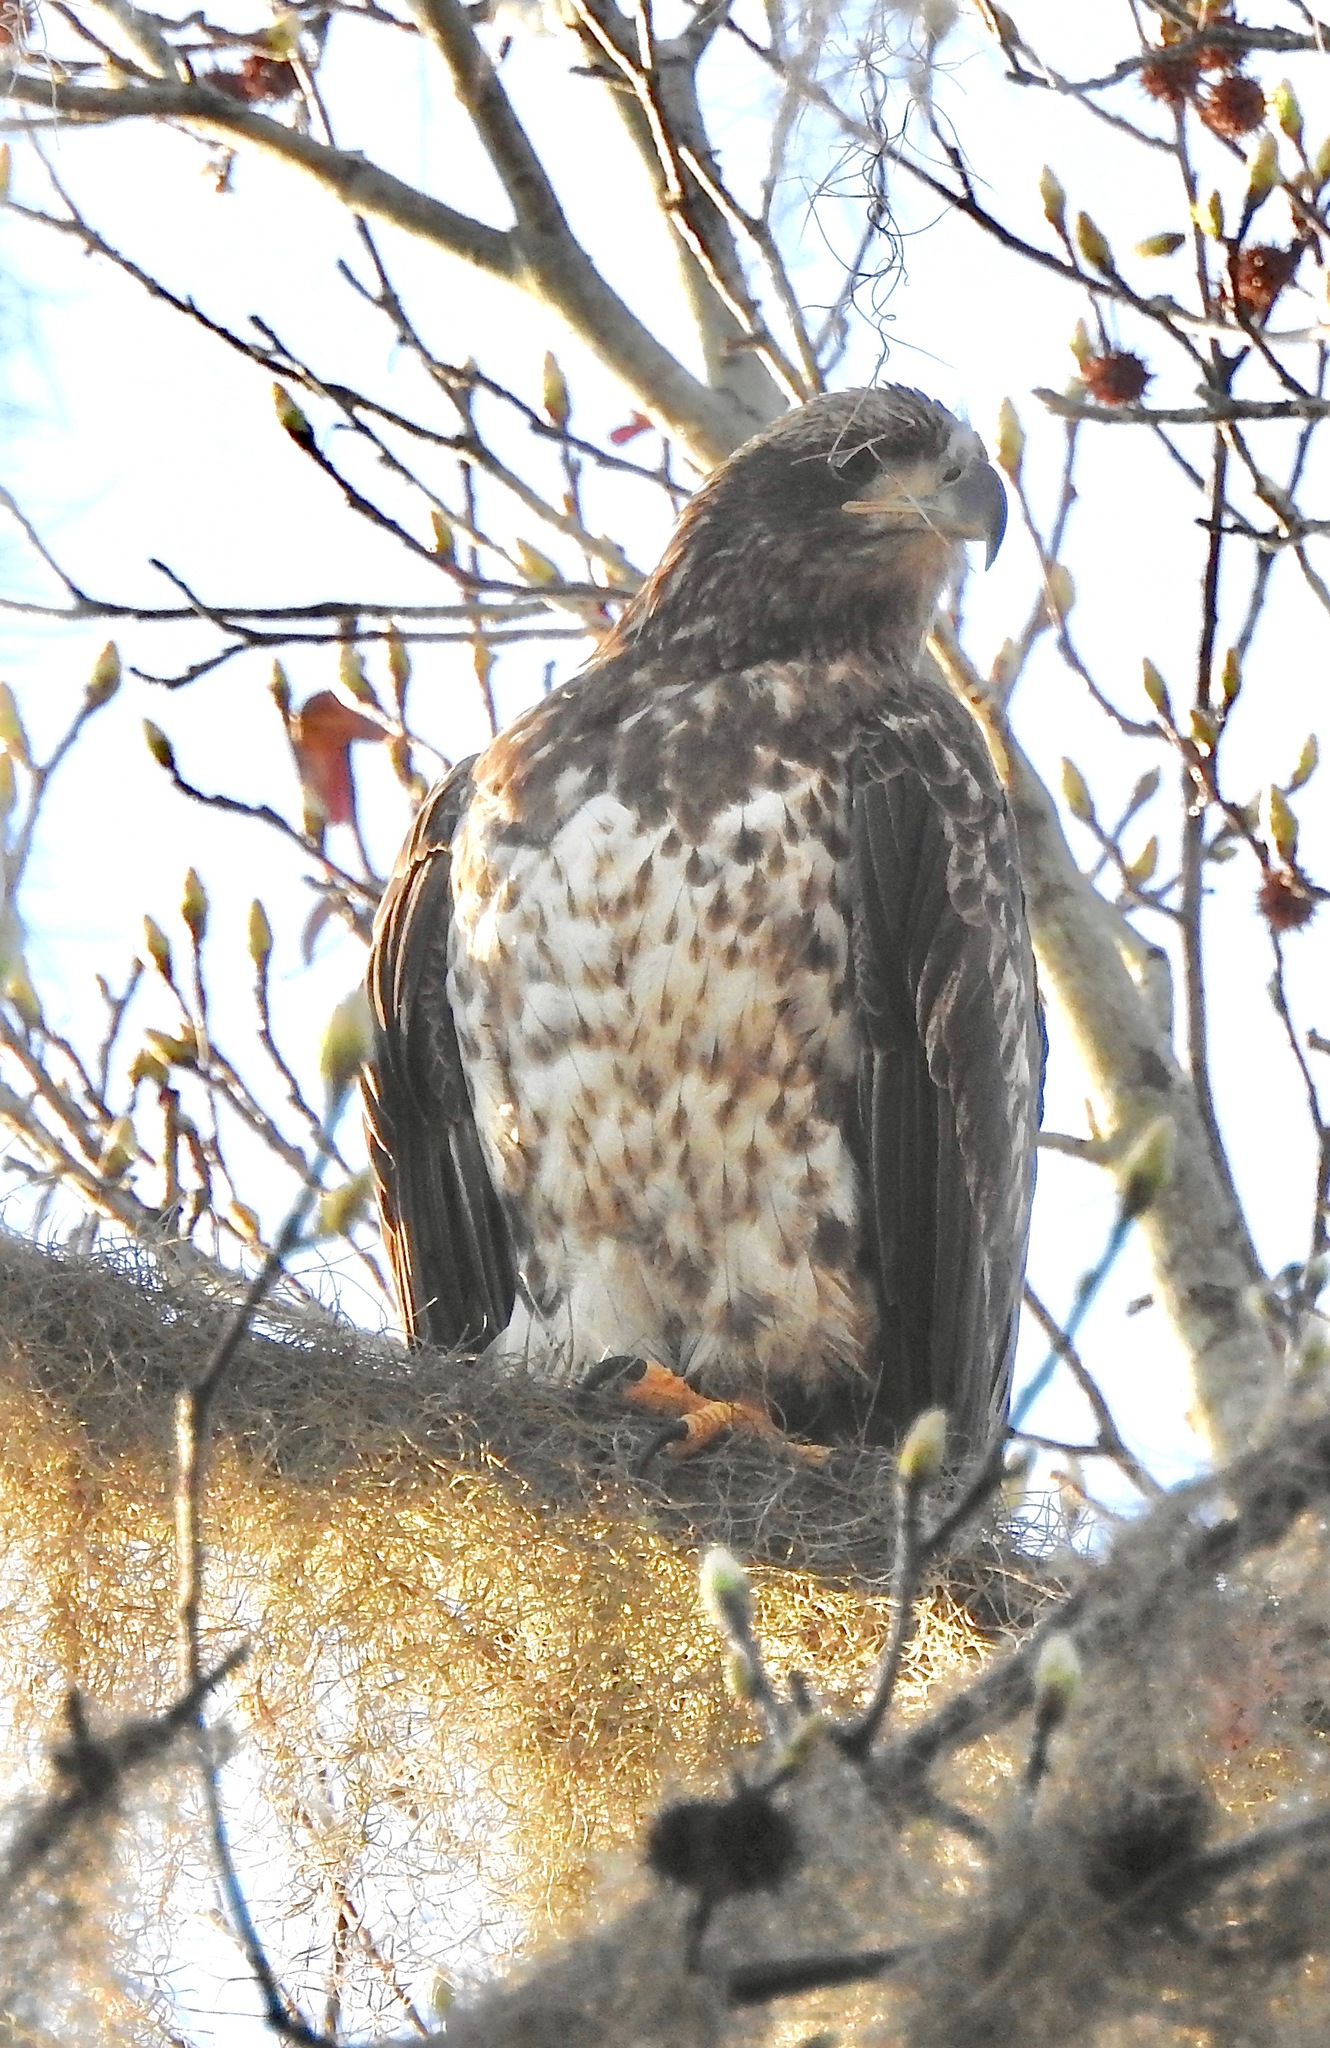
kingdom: Animalia
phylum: Chordata
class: Aves
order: Accipitriformes
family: Accipitridae
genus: Haliaeetus
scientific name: Haliaeetus leucocephalus
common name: Bald eagle
